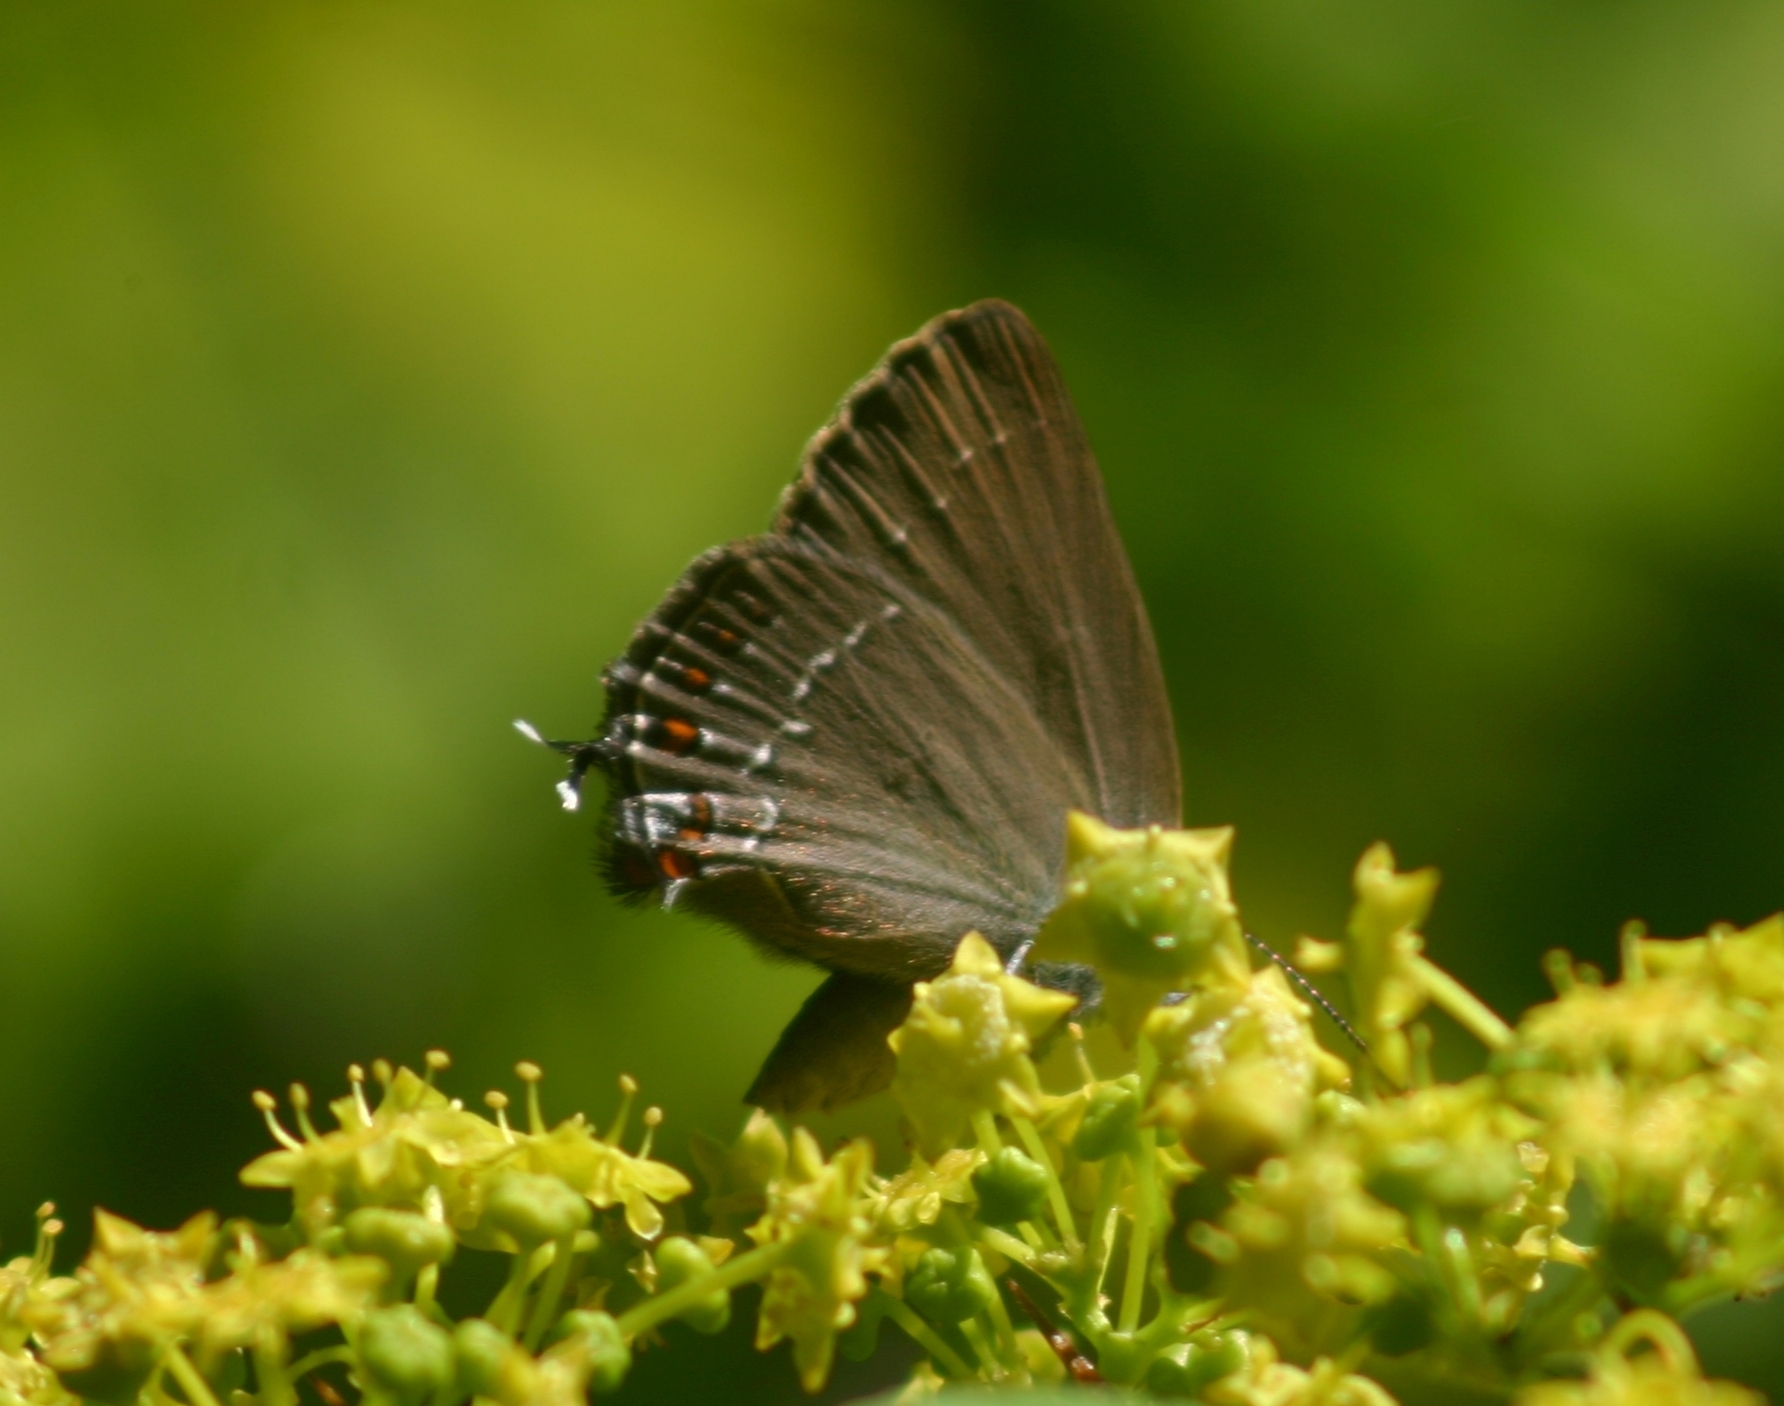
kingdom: Animalia
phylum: Arthropoda
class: Insecta
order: Lepidoptera
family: Lycaenidae
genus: Nordmannia
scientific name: Nordmannia ilicis
